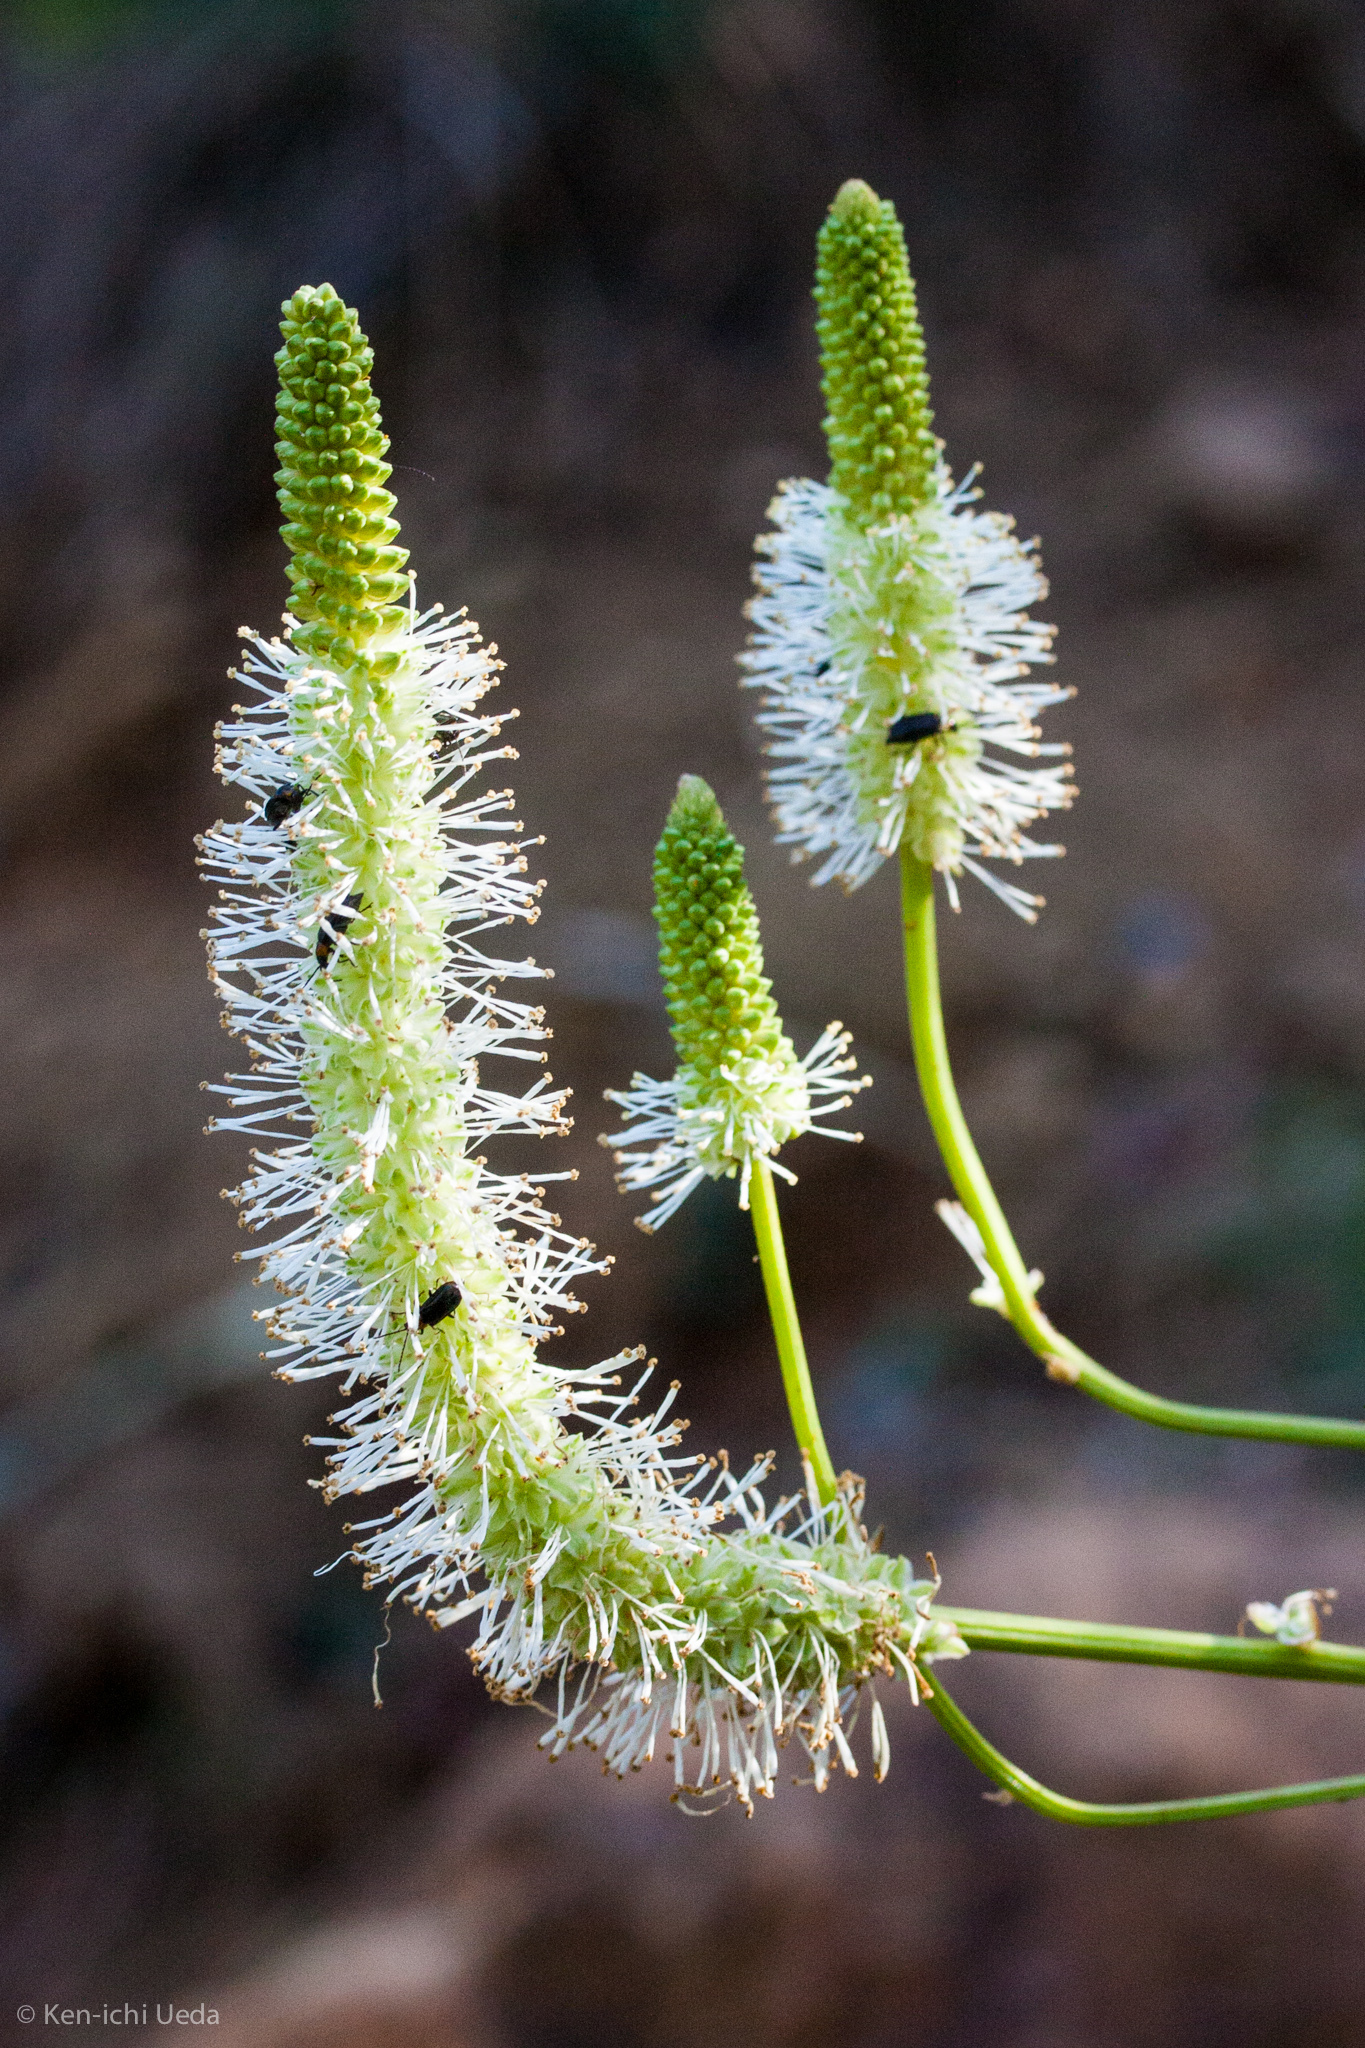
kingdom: Plantae
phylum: Tracheophyta
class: Magnoliopsida
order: Rosales
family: Rosaceae
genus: Sanguisorba
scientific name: Sanguisorba canadensis
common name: White burnet
